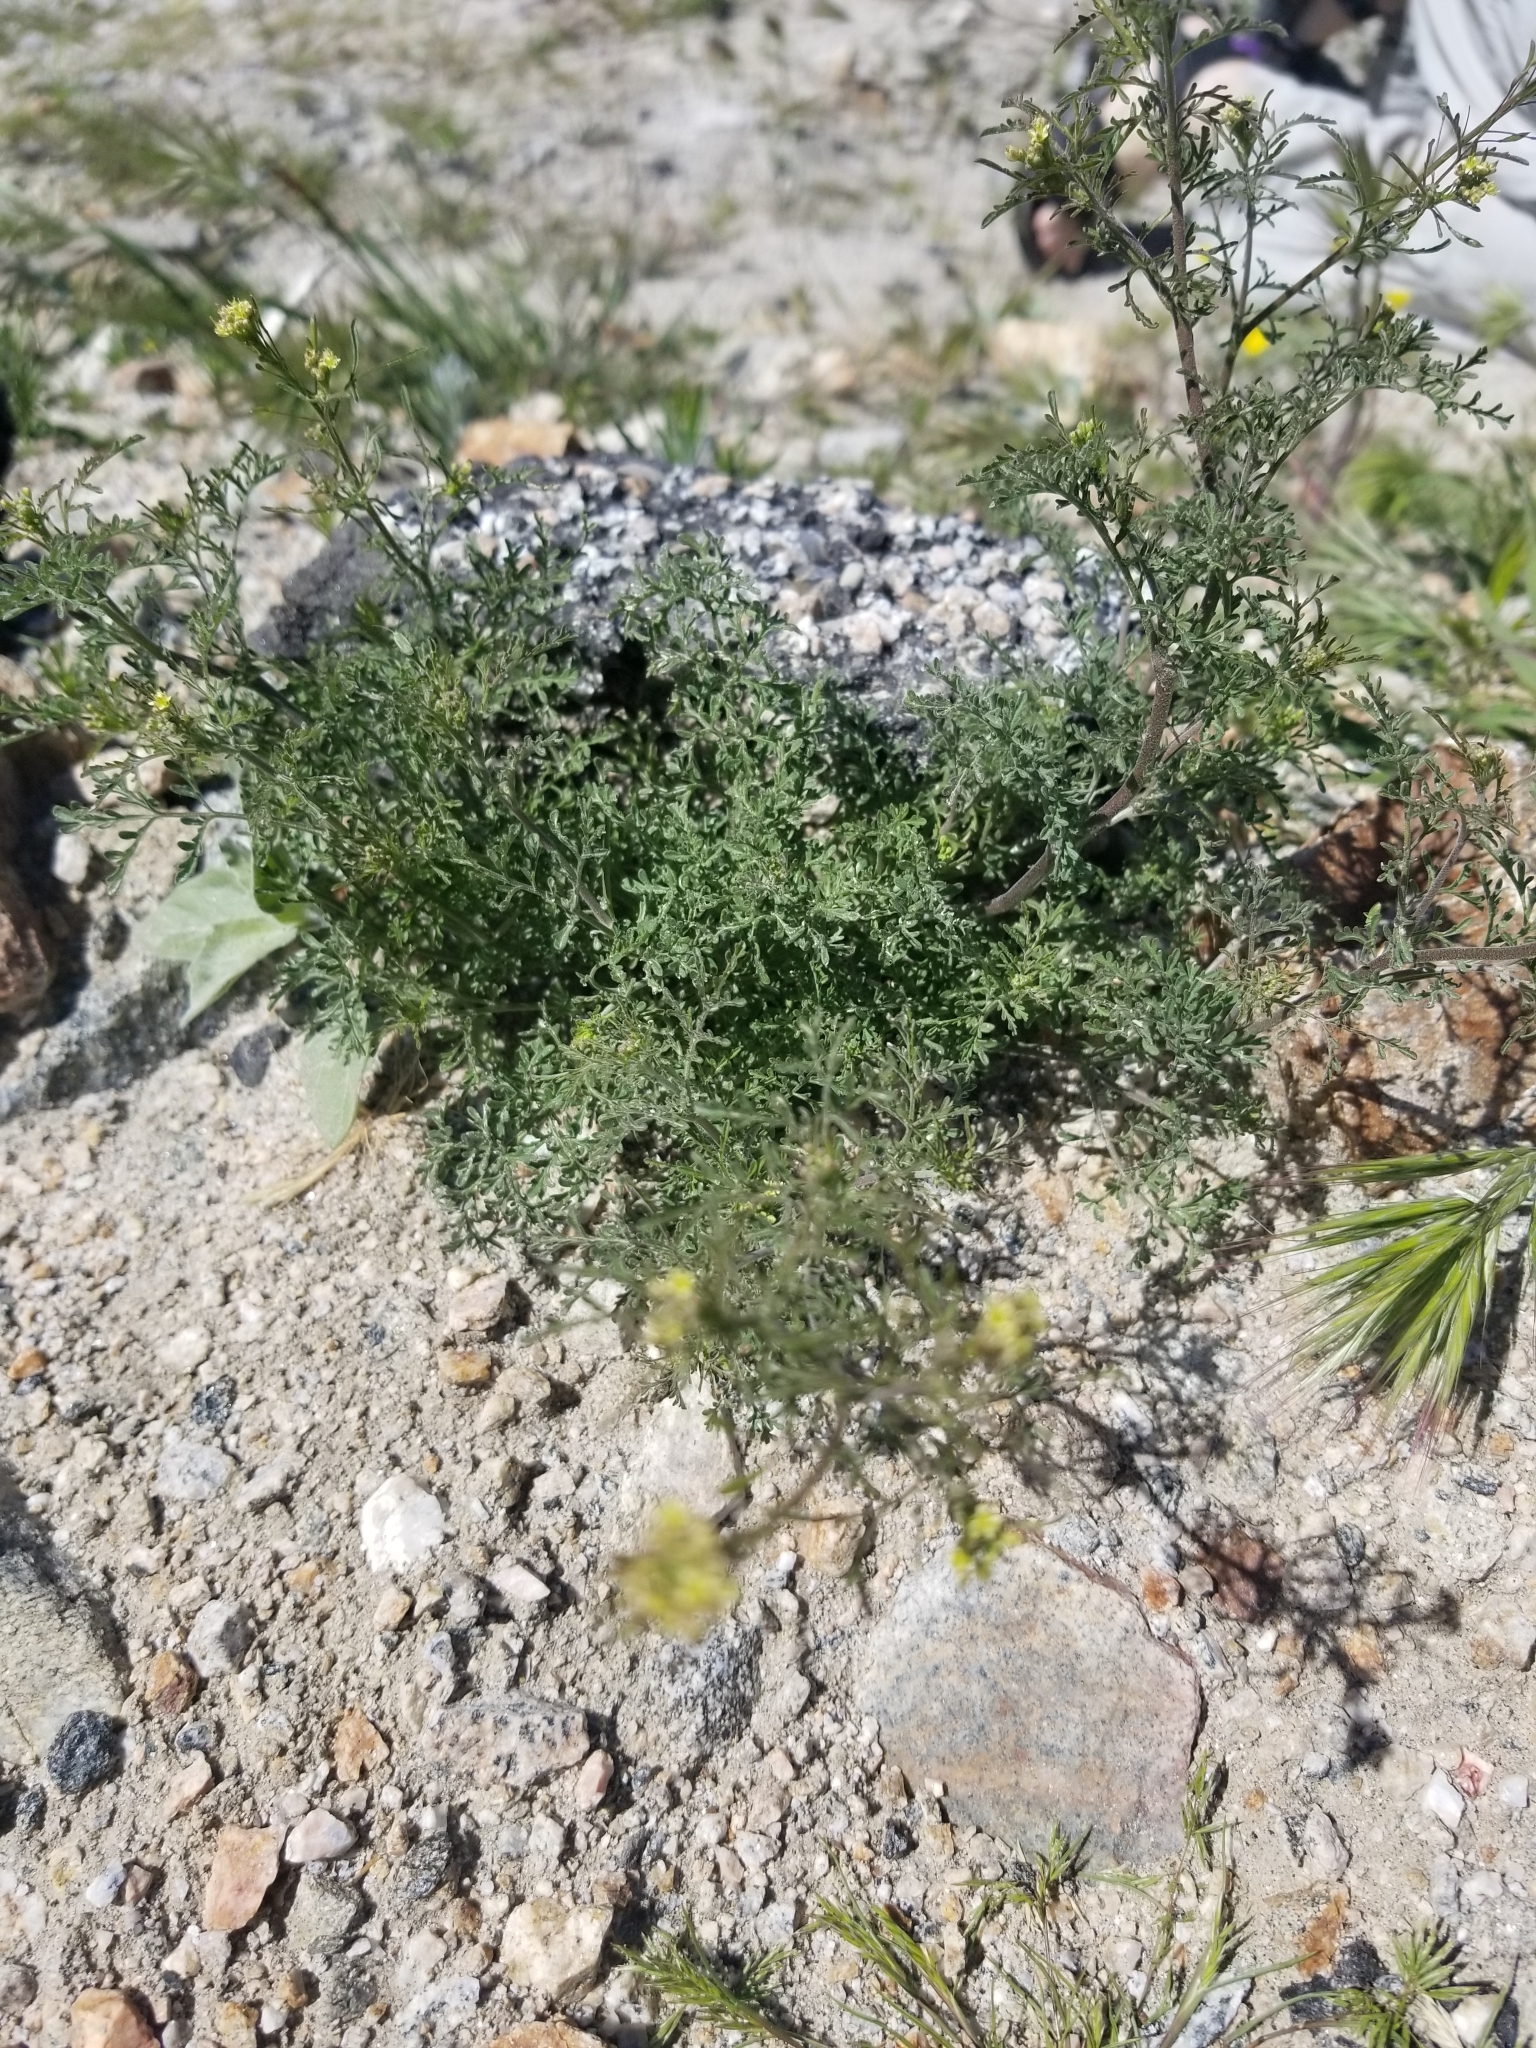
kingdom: Plantae
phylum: Tracheophyta
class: Magnoliopsida
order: Brassicales
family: Brassicaceae
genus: Descurainia
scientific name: Descurainia pinnata
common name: Western tansy mustard
